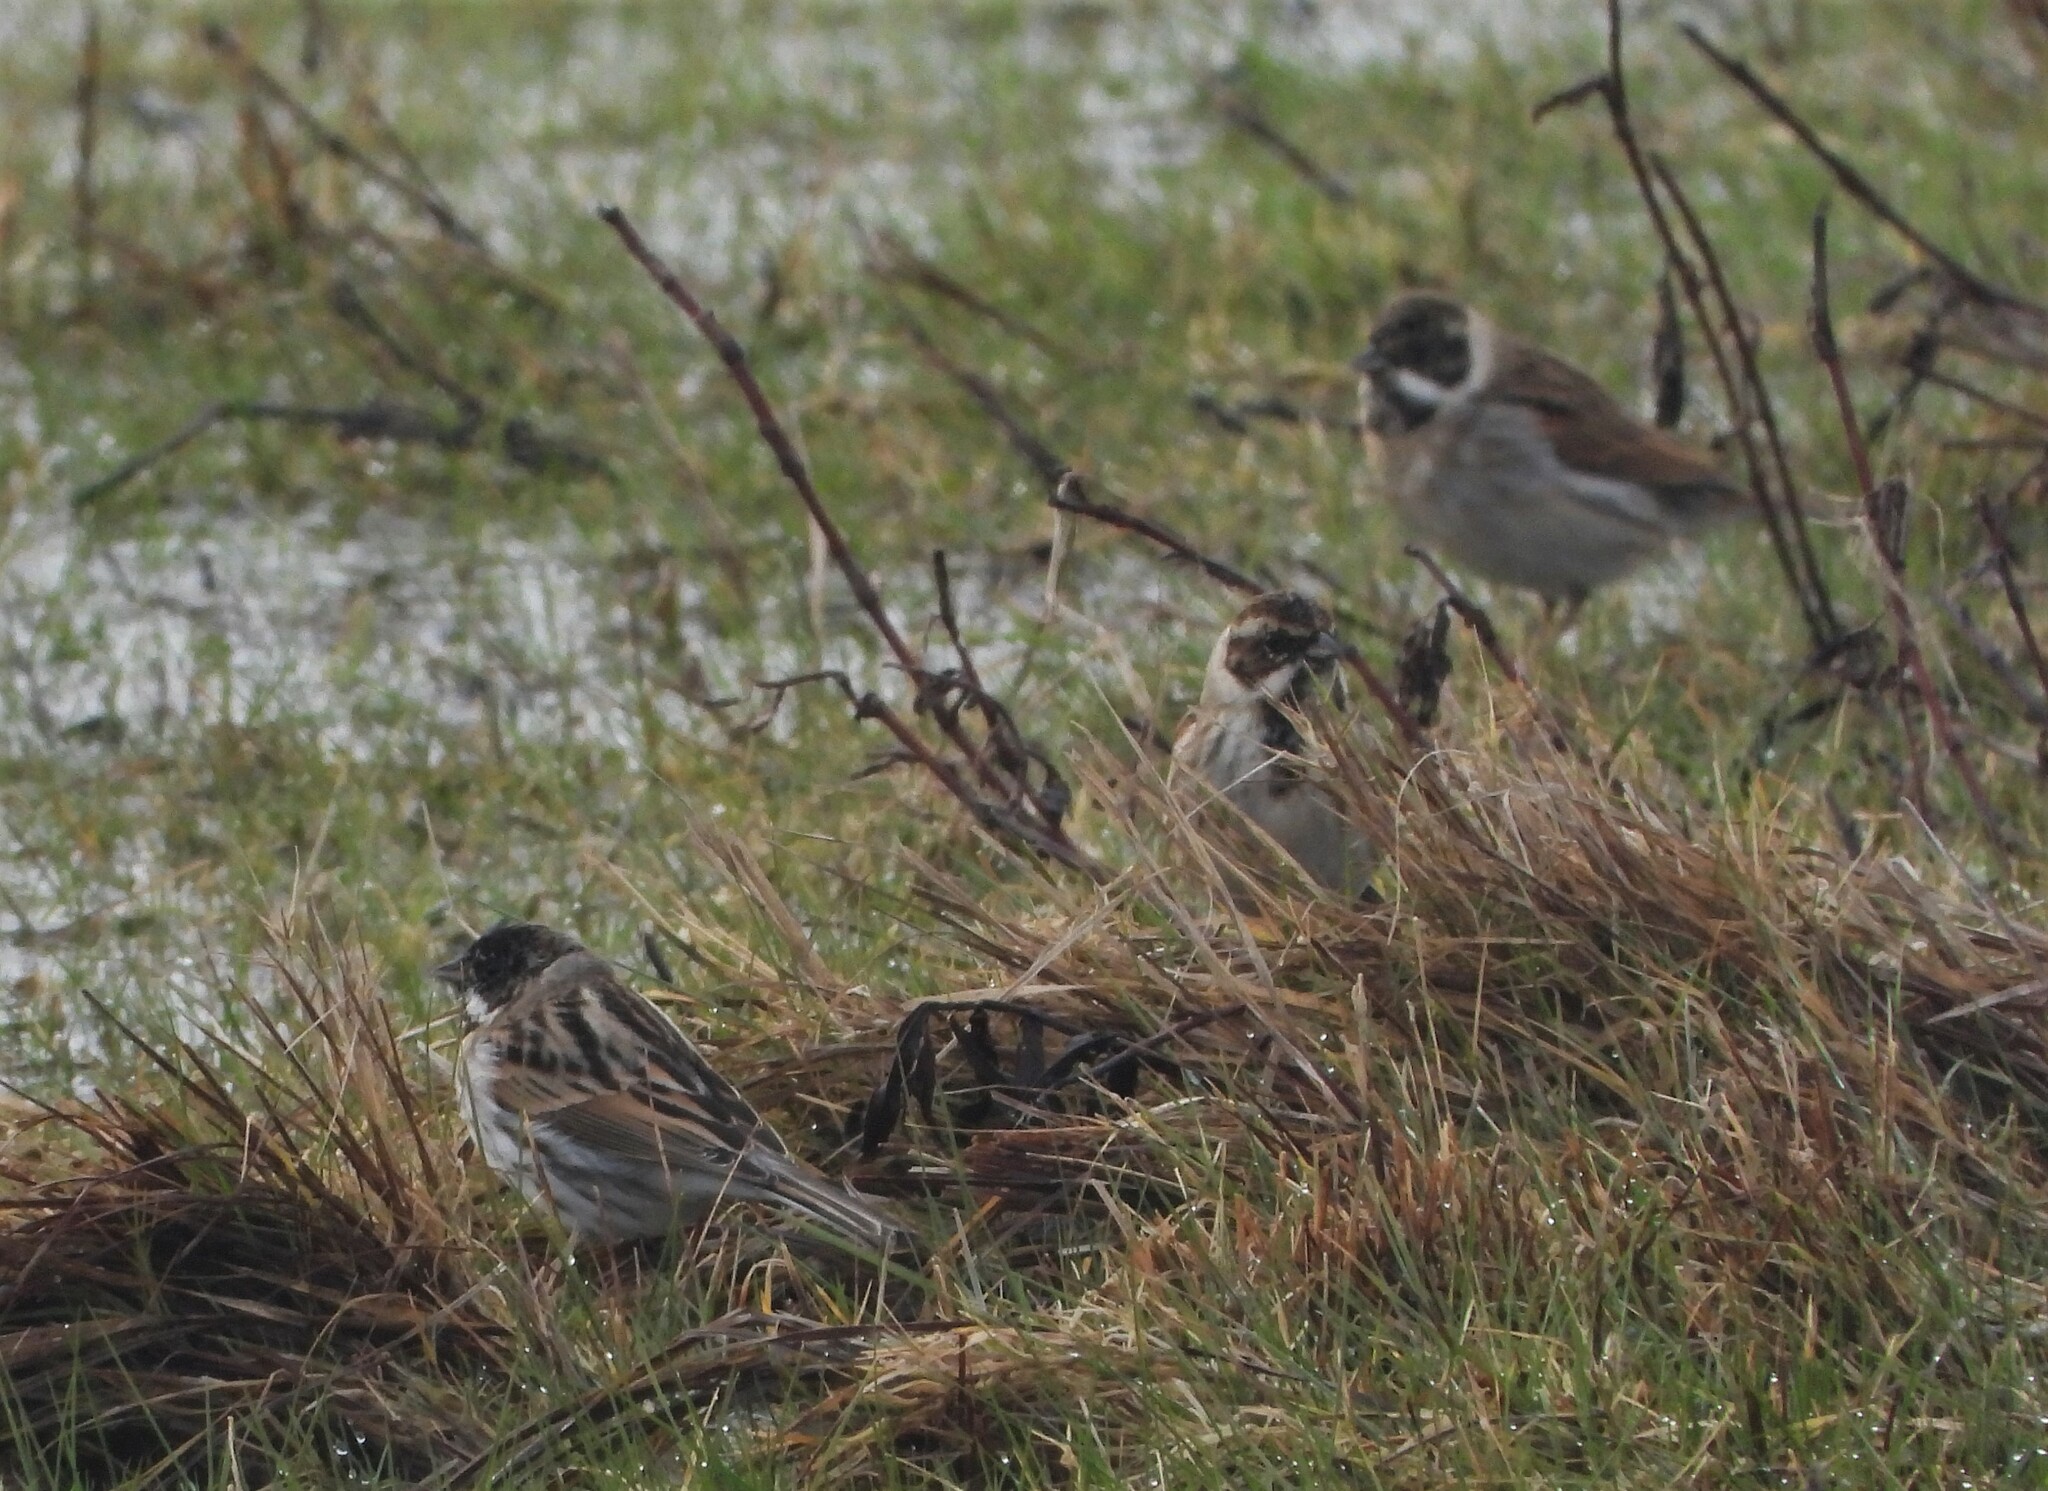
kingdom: Animalia
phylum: Chordata
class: Aves
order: Passeriformes
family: Emberizidae
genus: Emberiza
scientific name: Emberiza schoeniclus
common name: Reed bunting
